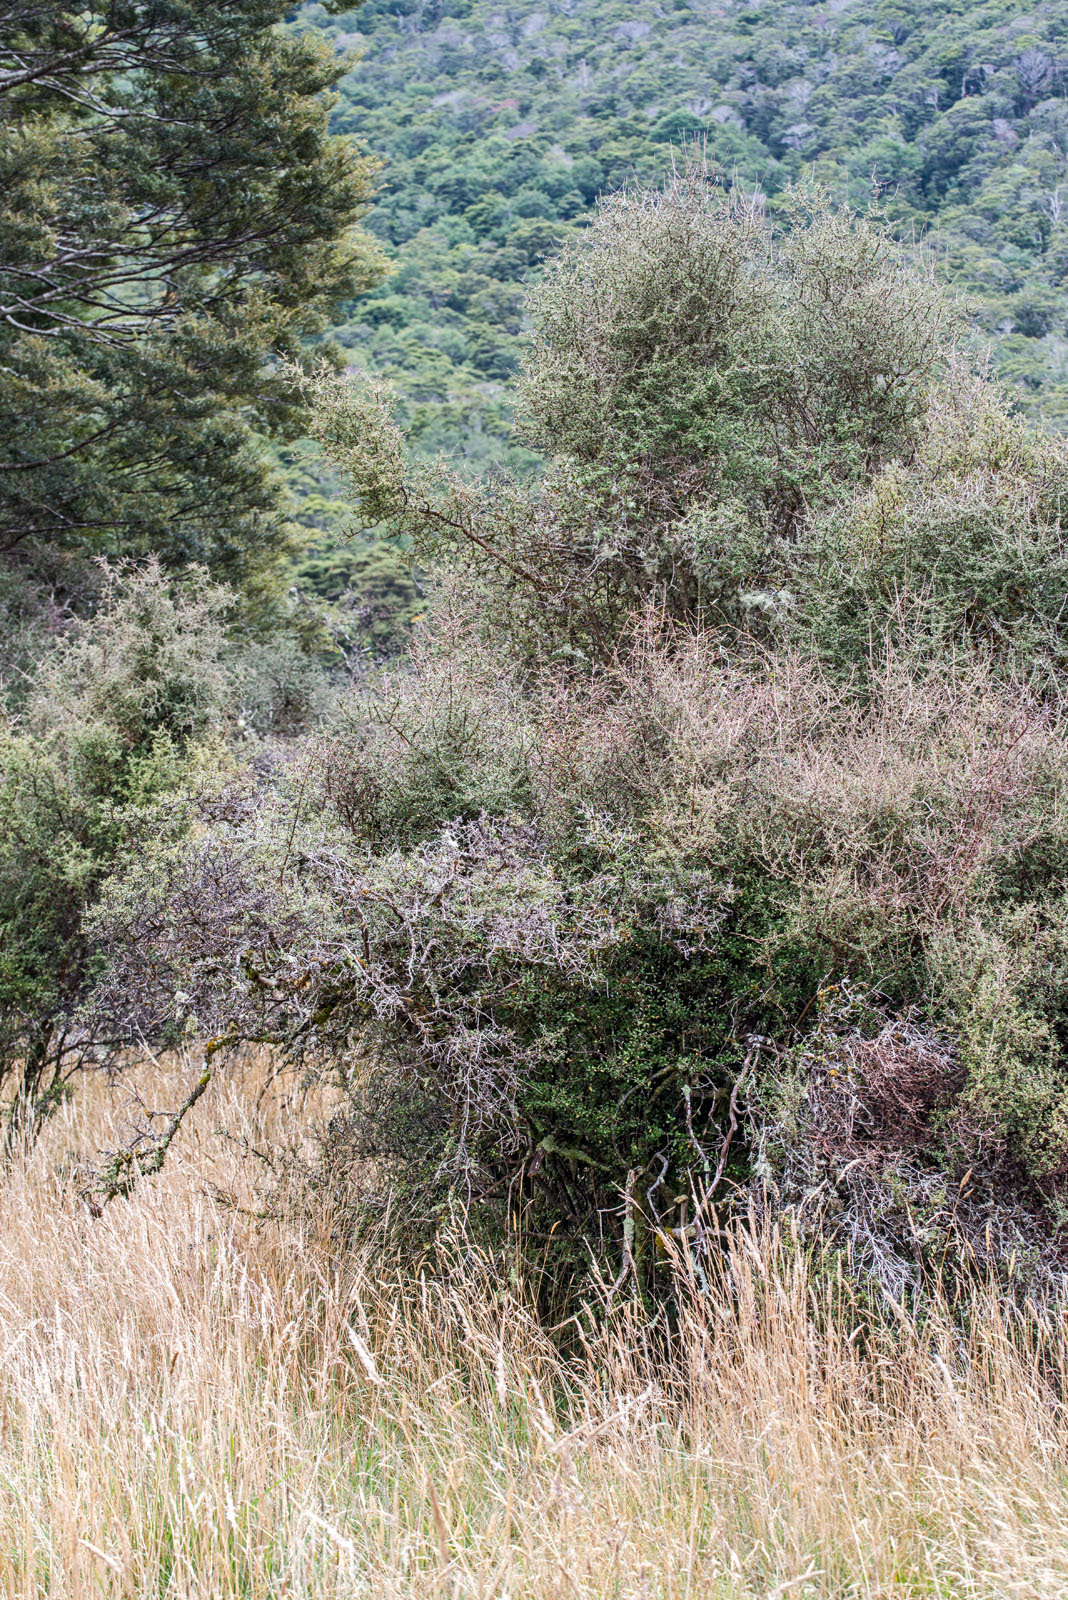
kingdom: Plantae
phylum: Tracheophyta
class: Magnoliopsida
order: Asterales
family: Asteraceae
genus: Olearia
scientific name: Olearia virgata
